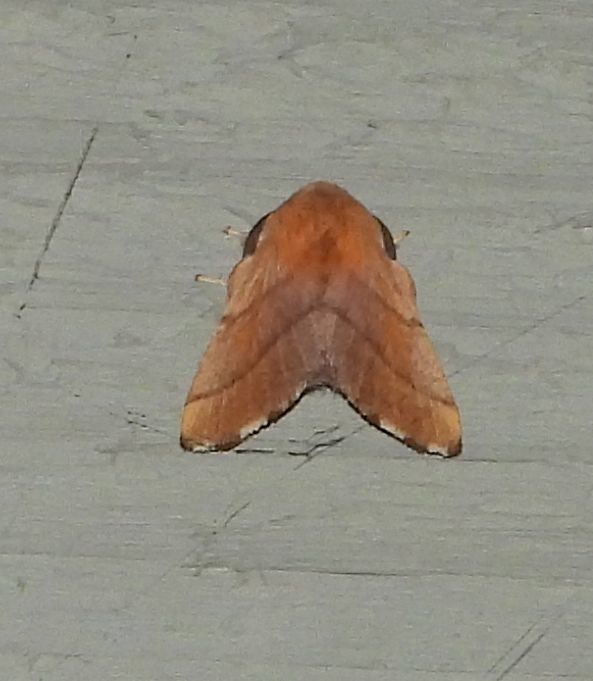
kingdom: Animalia
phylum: Arthropoda
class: Insecta
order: Lepidoptera
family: Lasiocampidae
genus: Malacosoma
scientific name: Malacosoma disstria
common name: Forest tent caterpillar
